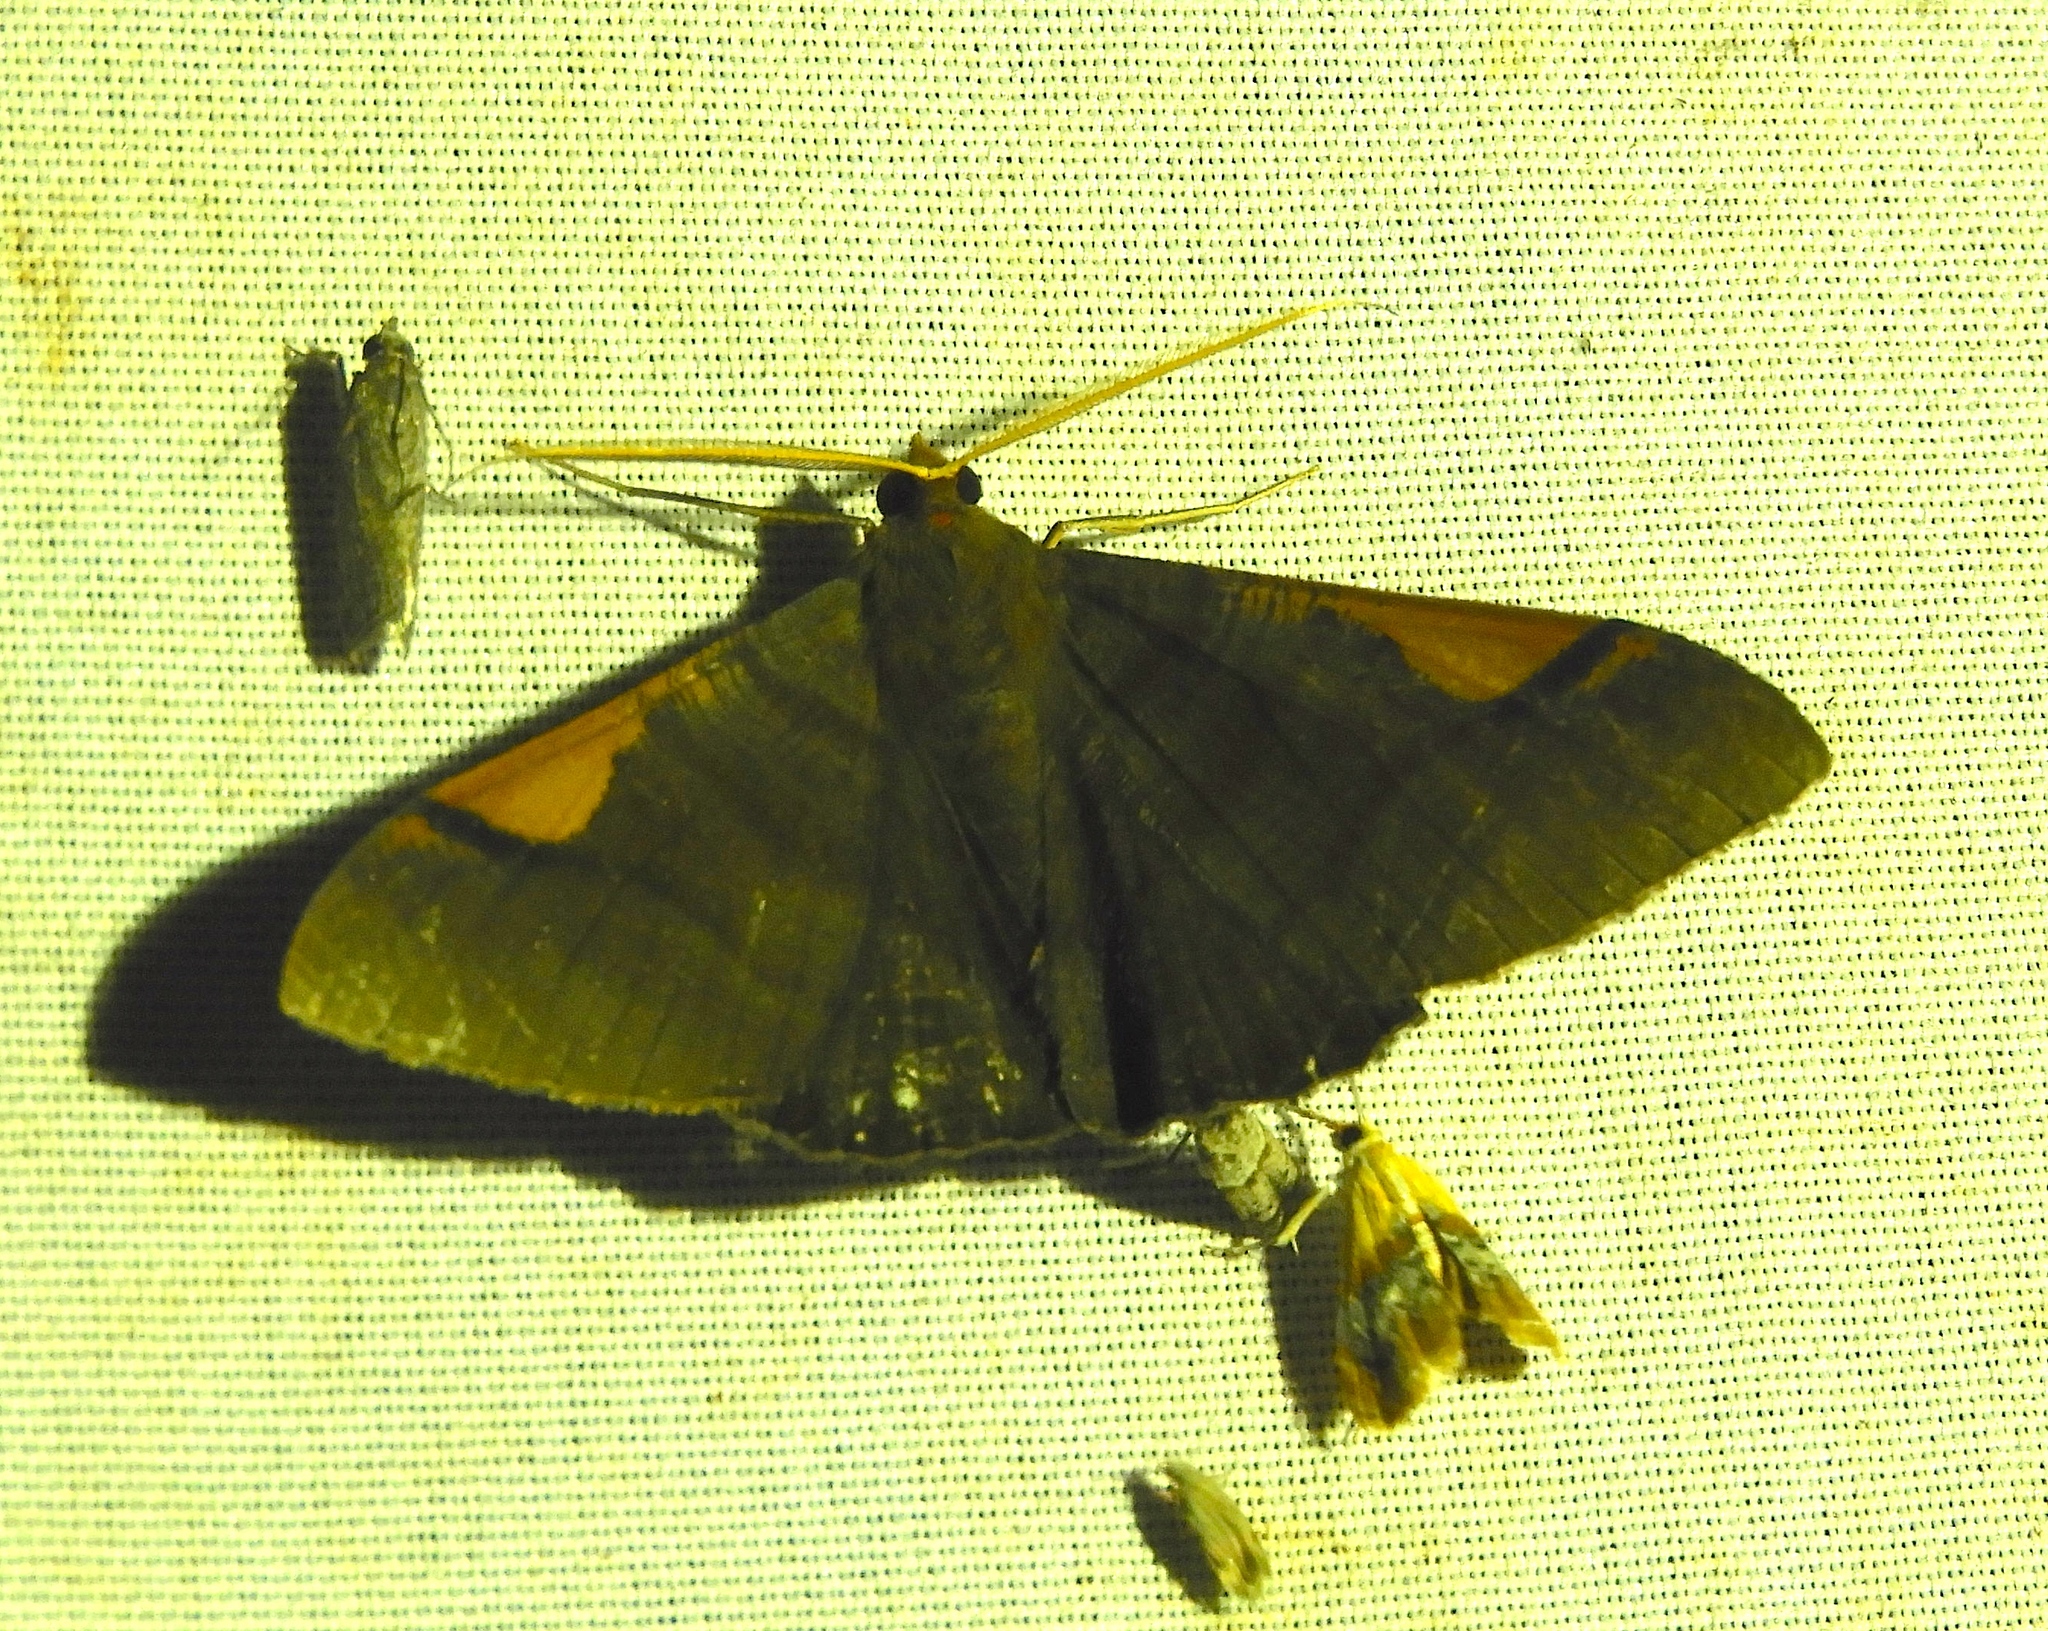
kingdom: Animalia
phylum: Arthropoda
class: Insecta
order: Lepidoptera
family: Geometridae
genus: Sphacelodes
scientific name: Sphacelodes vulneraria
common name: Looper moth
